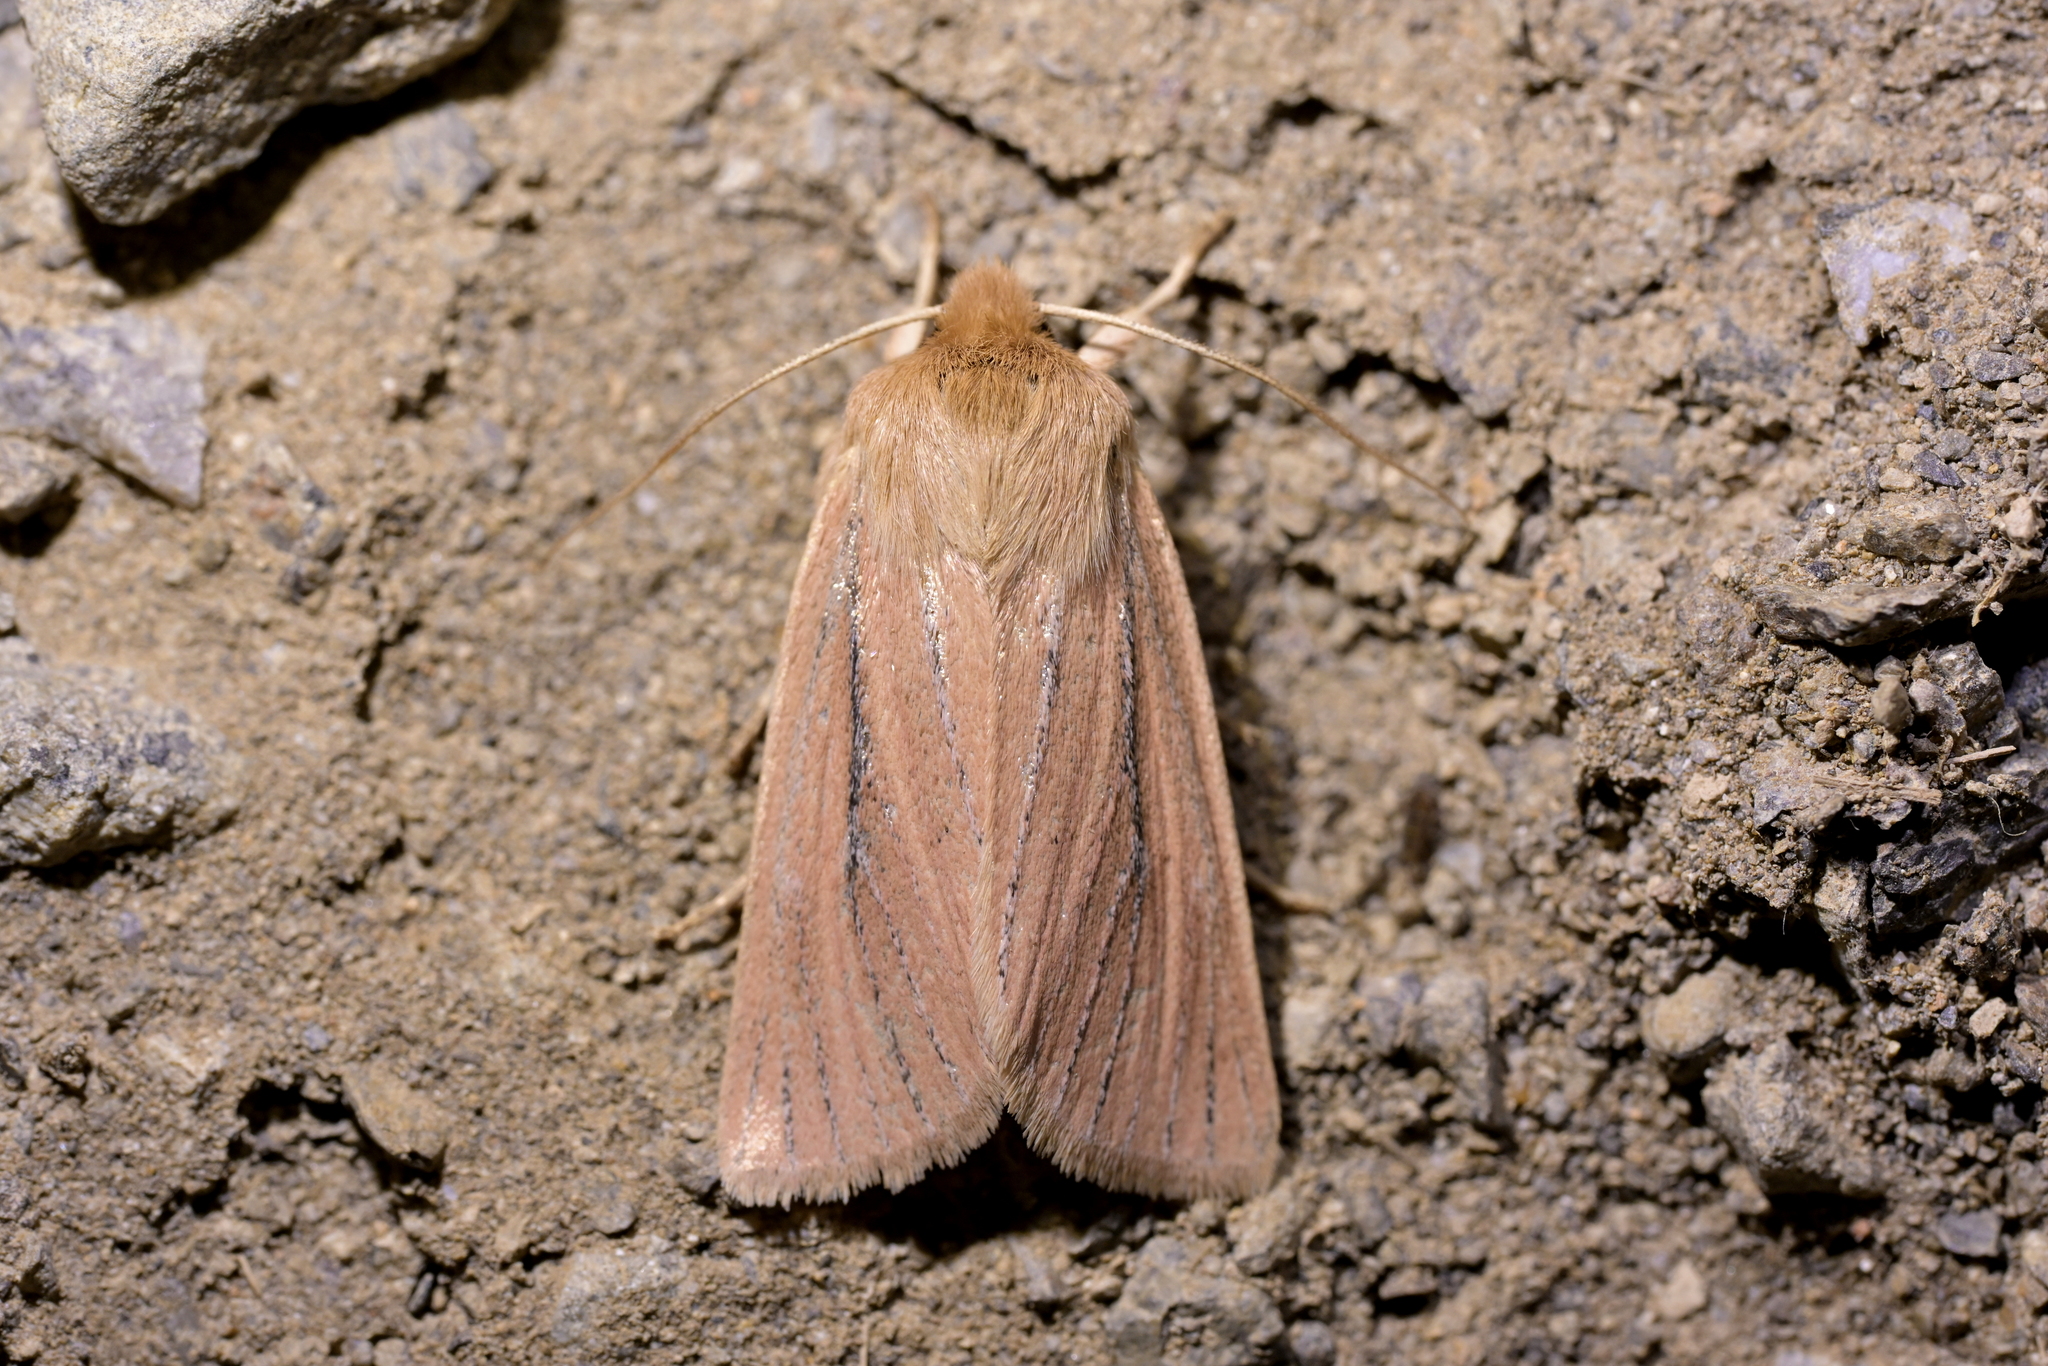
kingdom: Animalia
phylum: Arthropoda
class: Insecta
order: Lepidoptera
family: Noctuidae
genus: Ichneutica
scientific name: Ichneutica
